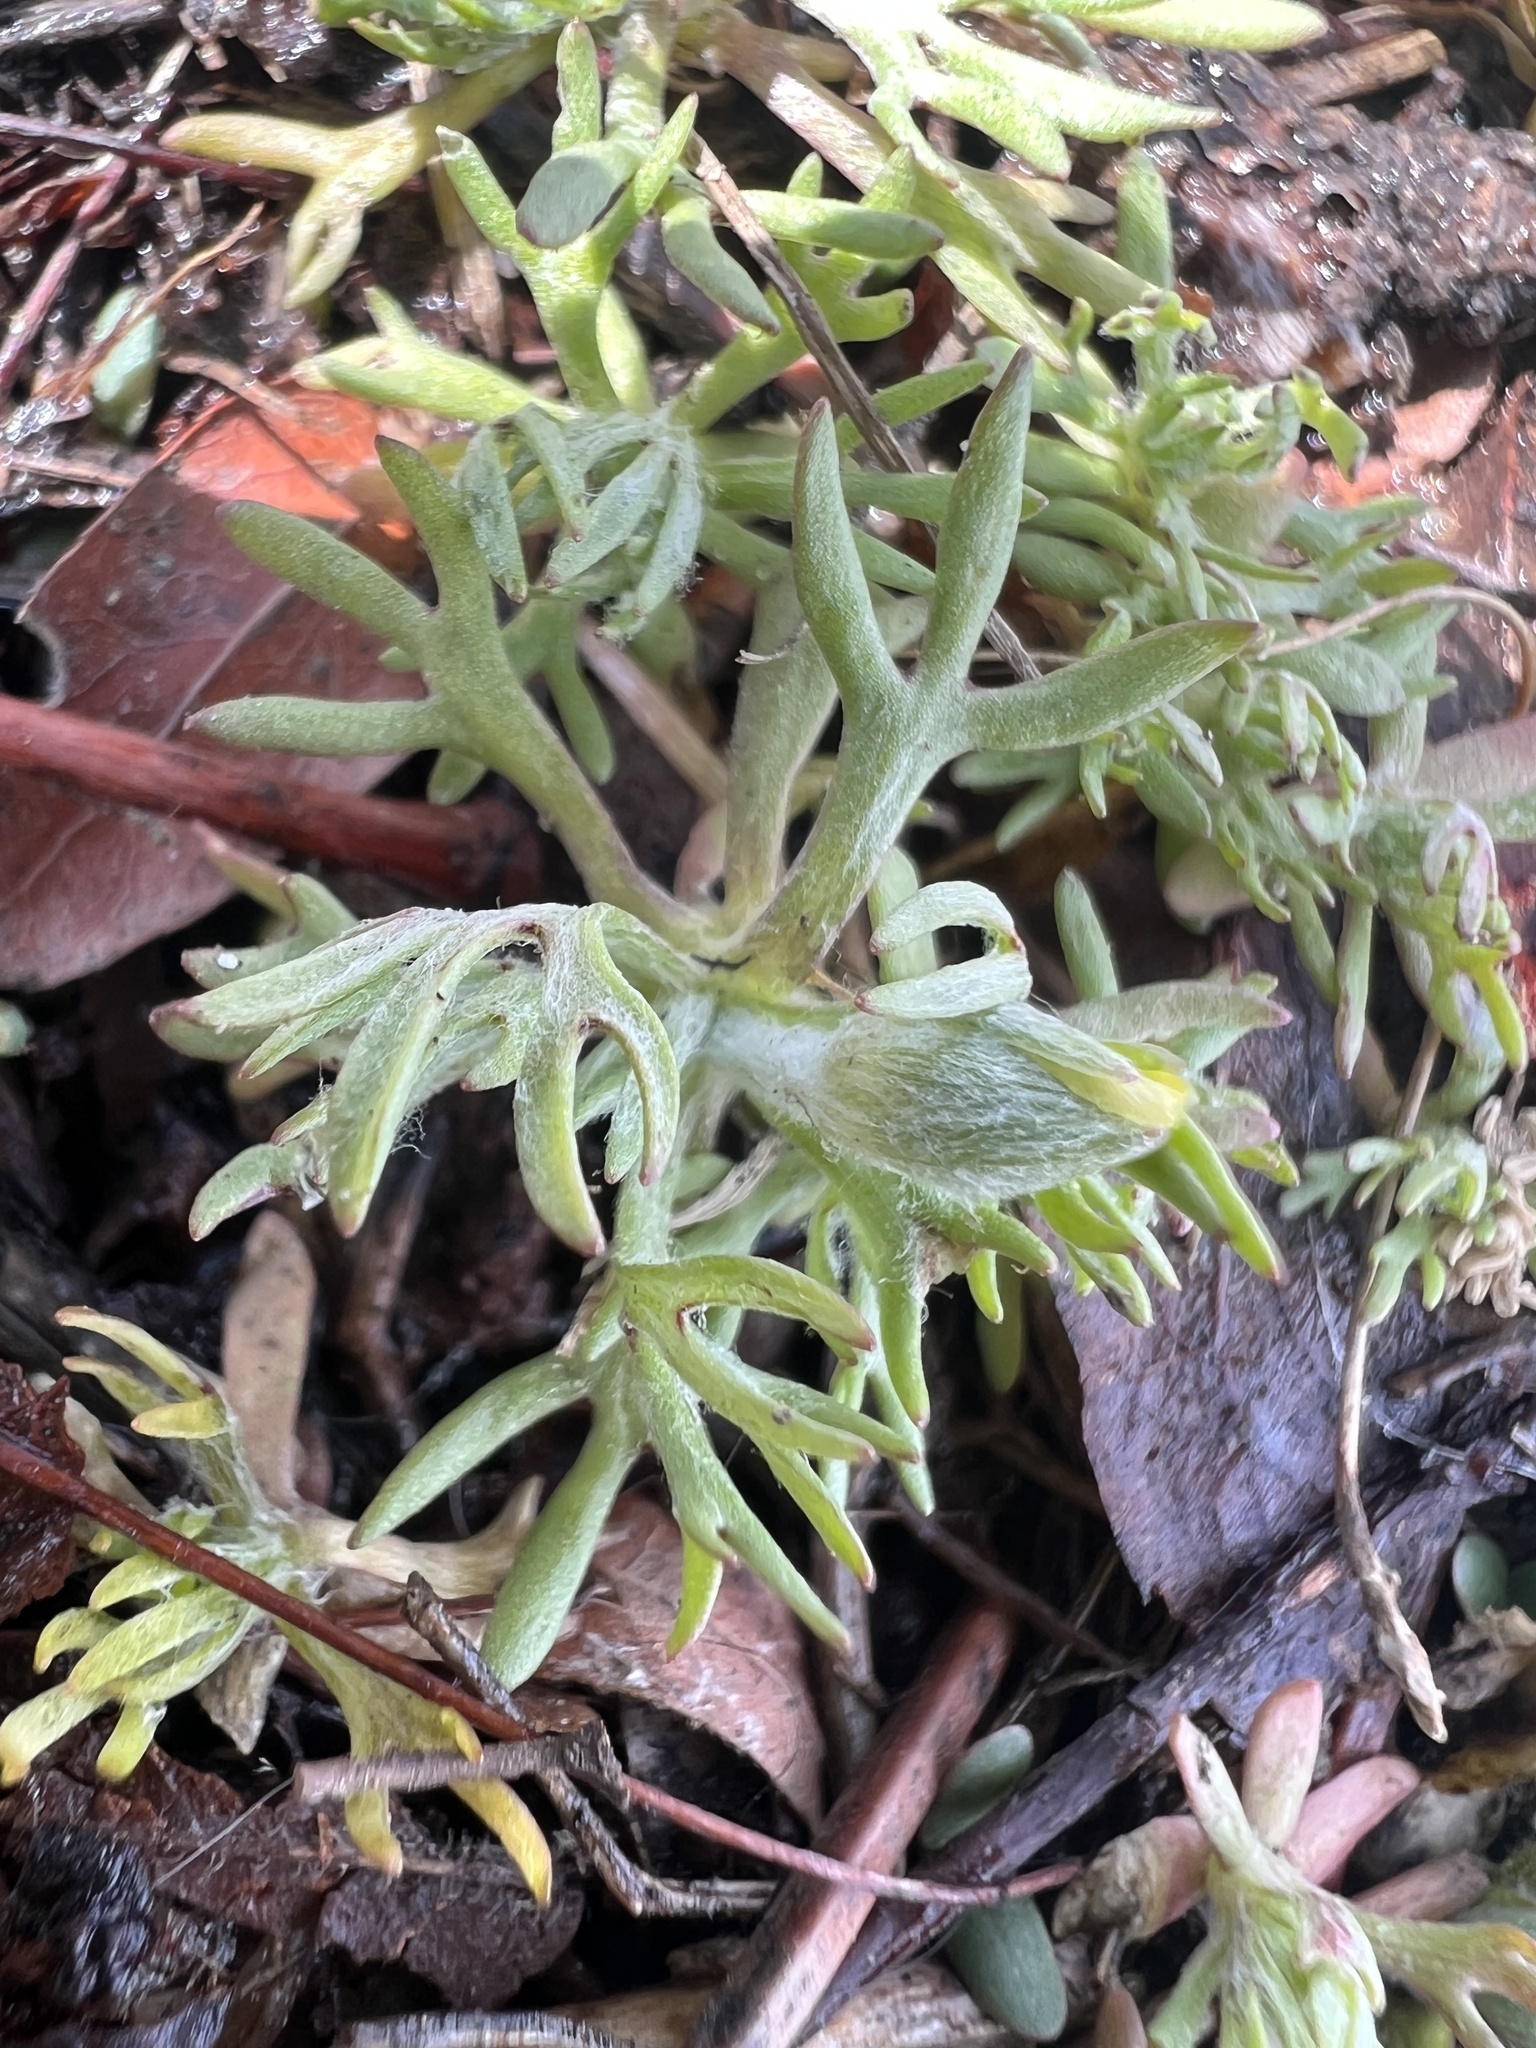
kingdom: Plantae
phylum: Tracheophyta
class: Magnoliopsida
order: Ranunculales
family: Ranunculaceae
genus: Ceratocephala
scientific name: Ceratocephala orthoceras
